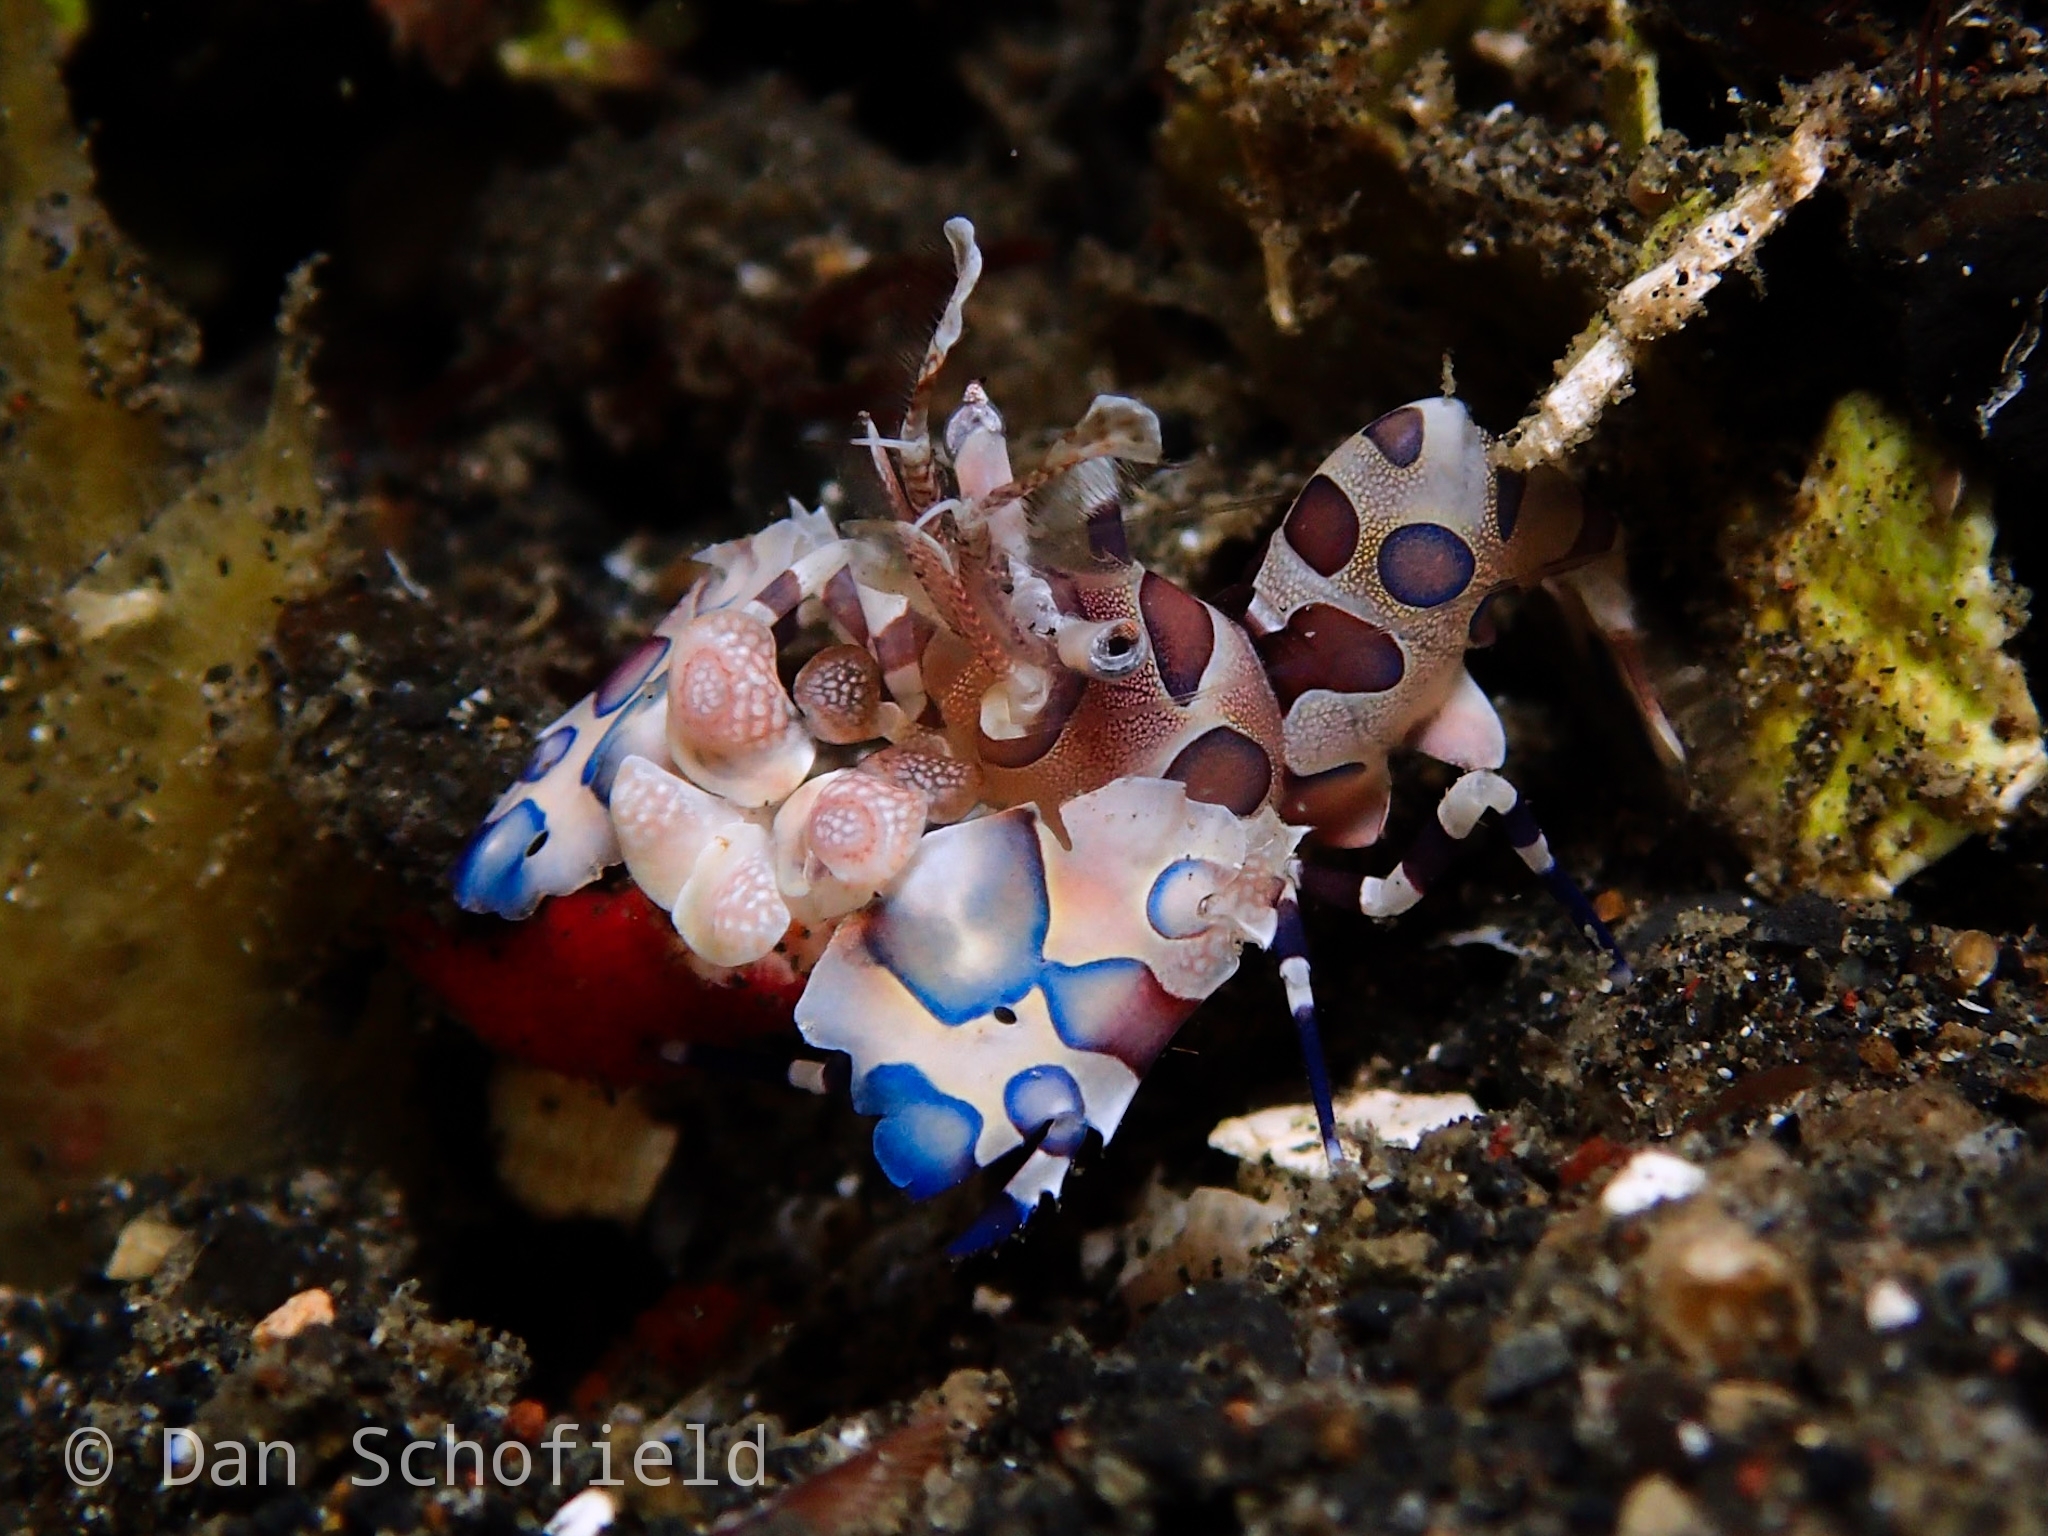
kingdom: Animalia
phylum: Arthropoda
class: Malacostraca
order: Decapoda
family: Palaemonidae
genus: Hymenocera
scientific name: Hymenocera picta
